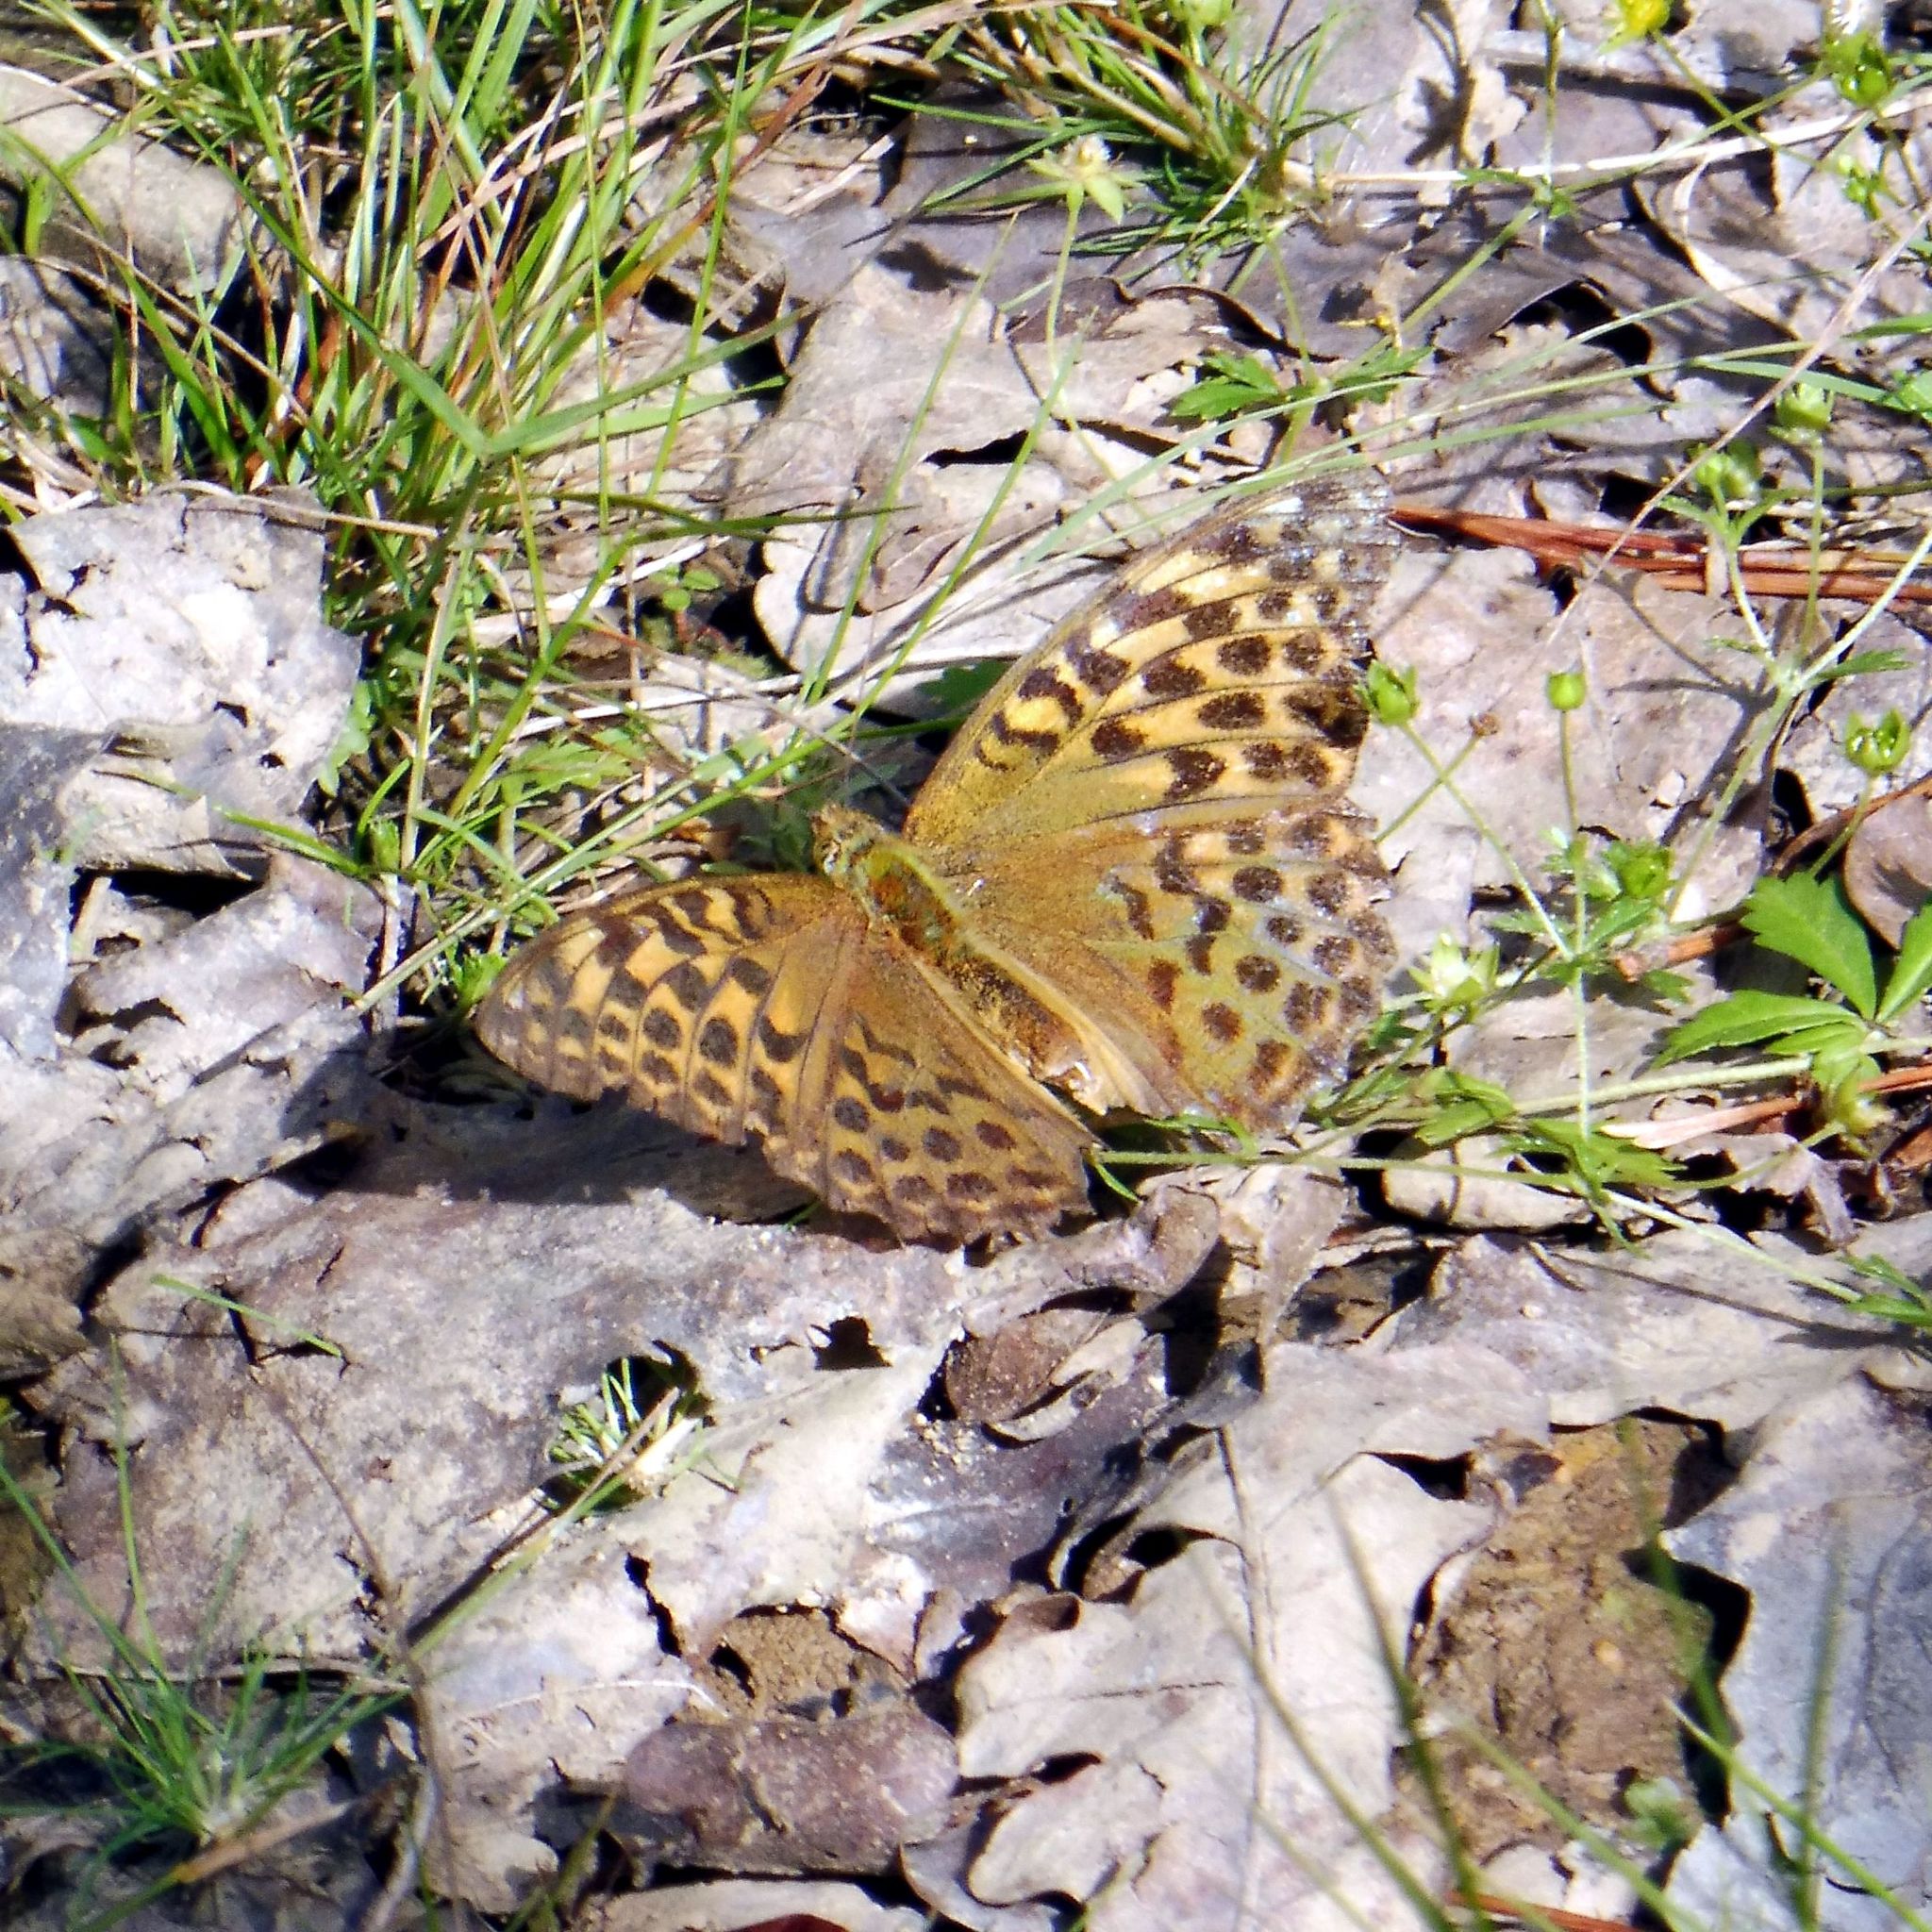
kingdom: Animalia
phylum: Arthropoda
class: Insecta
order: Lepidoptera
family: Nymphalidae
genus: Argynnis
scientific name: Argynnis paphia
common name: Silver-washed fritillary
